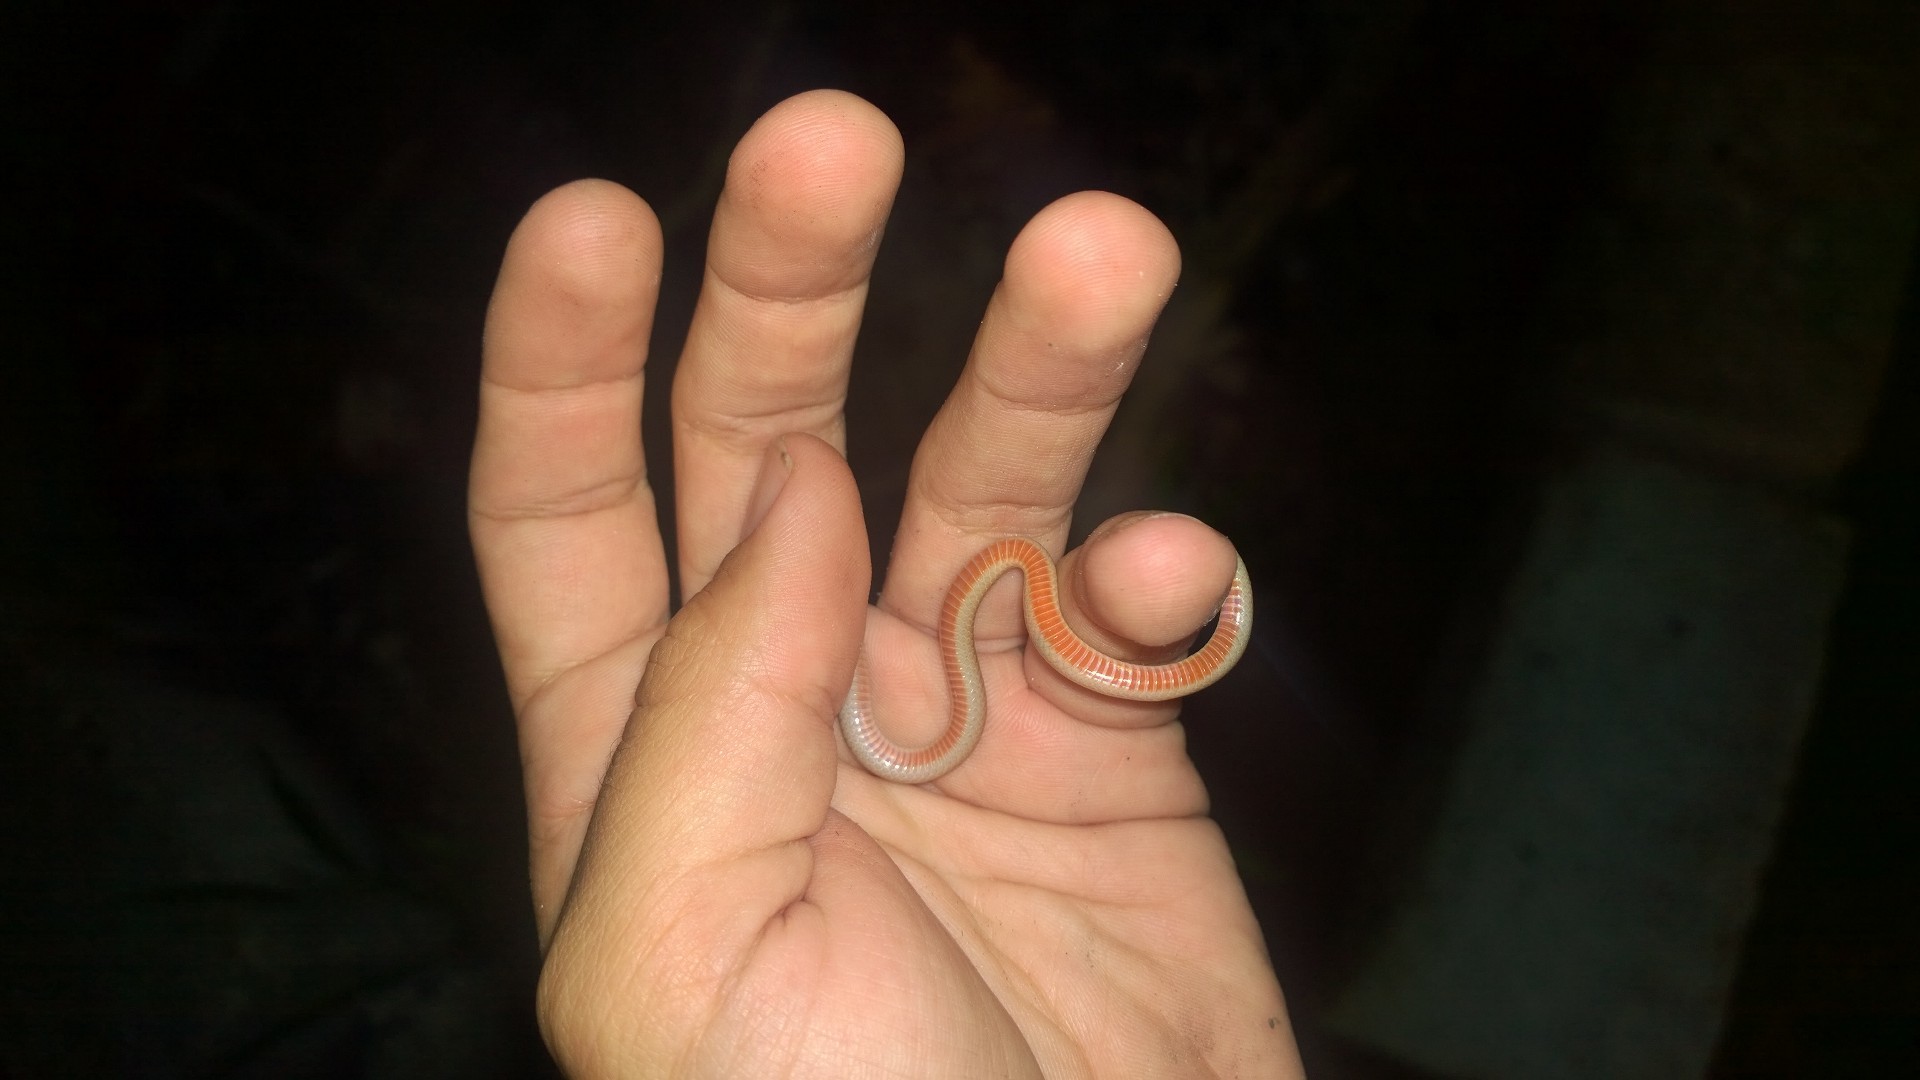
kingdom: Animalia
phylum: Chordata
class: Squamata
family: Colubridae
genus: Tantilla
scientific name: Tantilla gracilis
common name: Flathead snake
